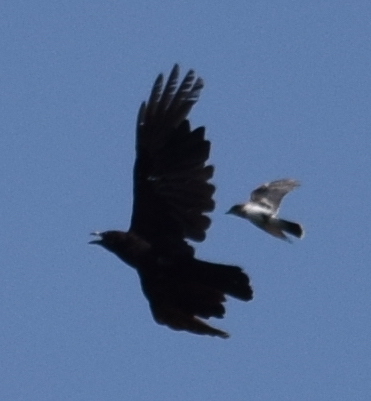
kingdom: Animalia
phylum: Chordata
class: Aves
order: Passeriformes
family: Corvidae
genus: Corvus
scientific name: Corvus brachyrhynchos
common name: American crow
